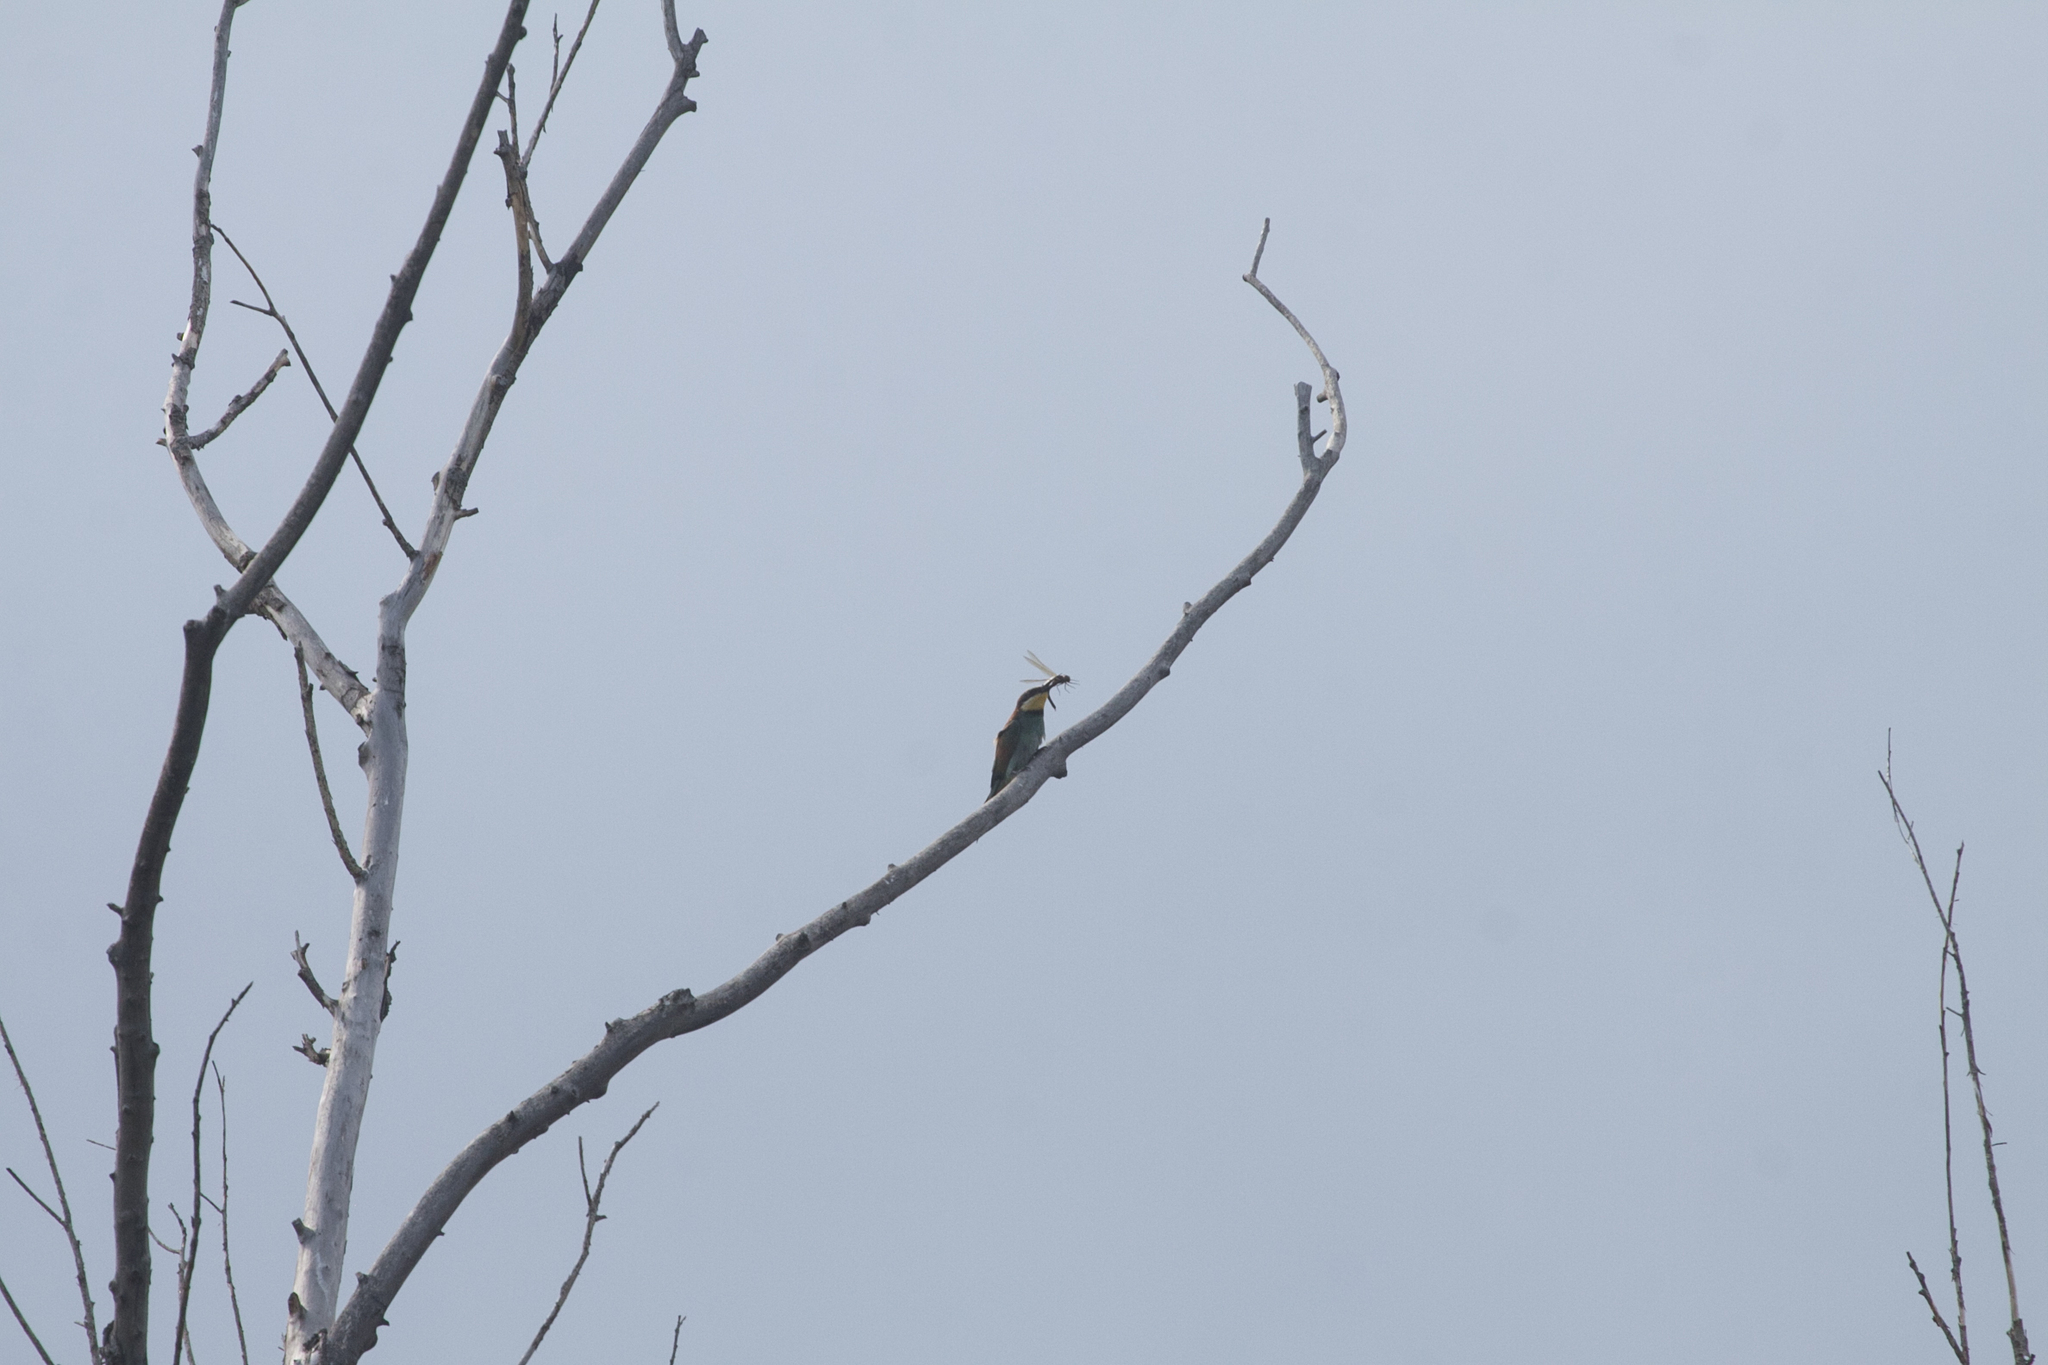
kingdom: Animalia
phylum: Chordata
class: Aves
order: Coraciiformes
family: Meropidae
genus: Merops
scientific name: Merops apiaster
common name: European bee-eater
